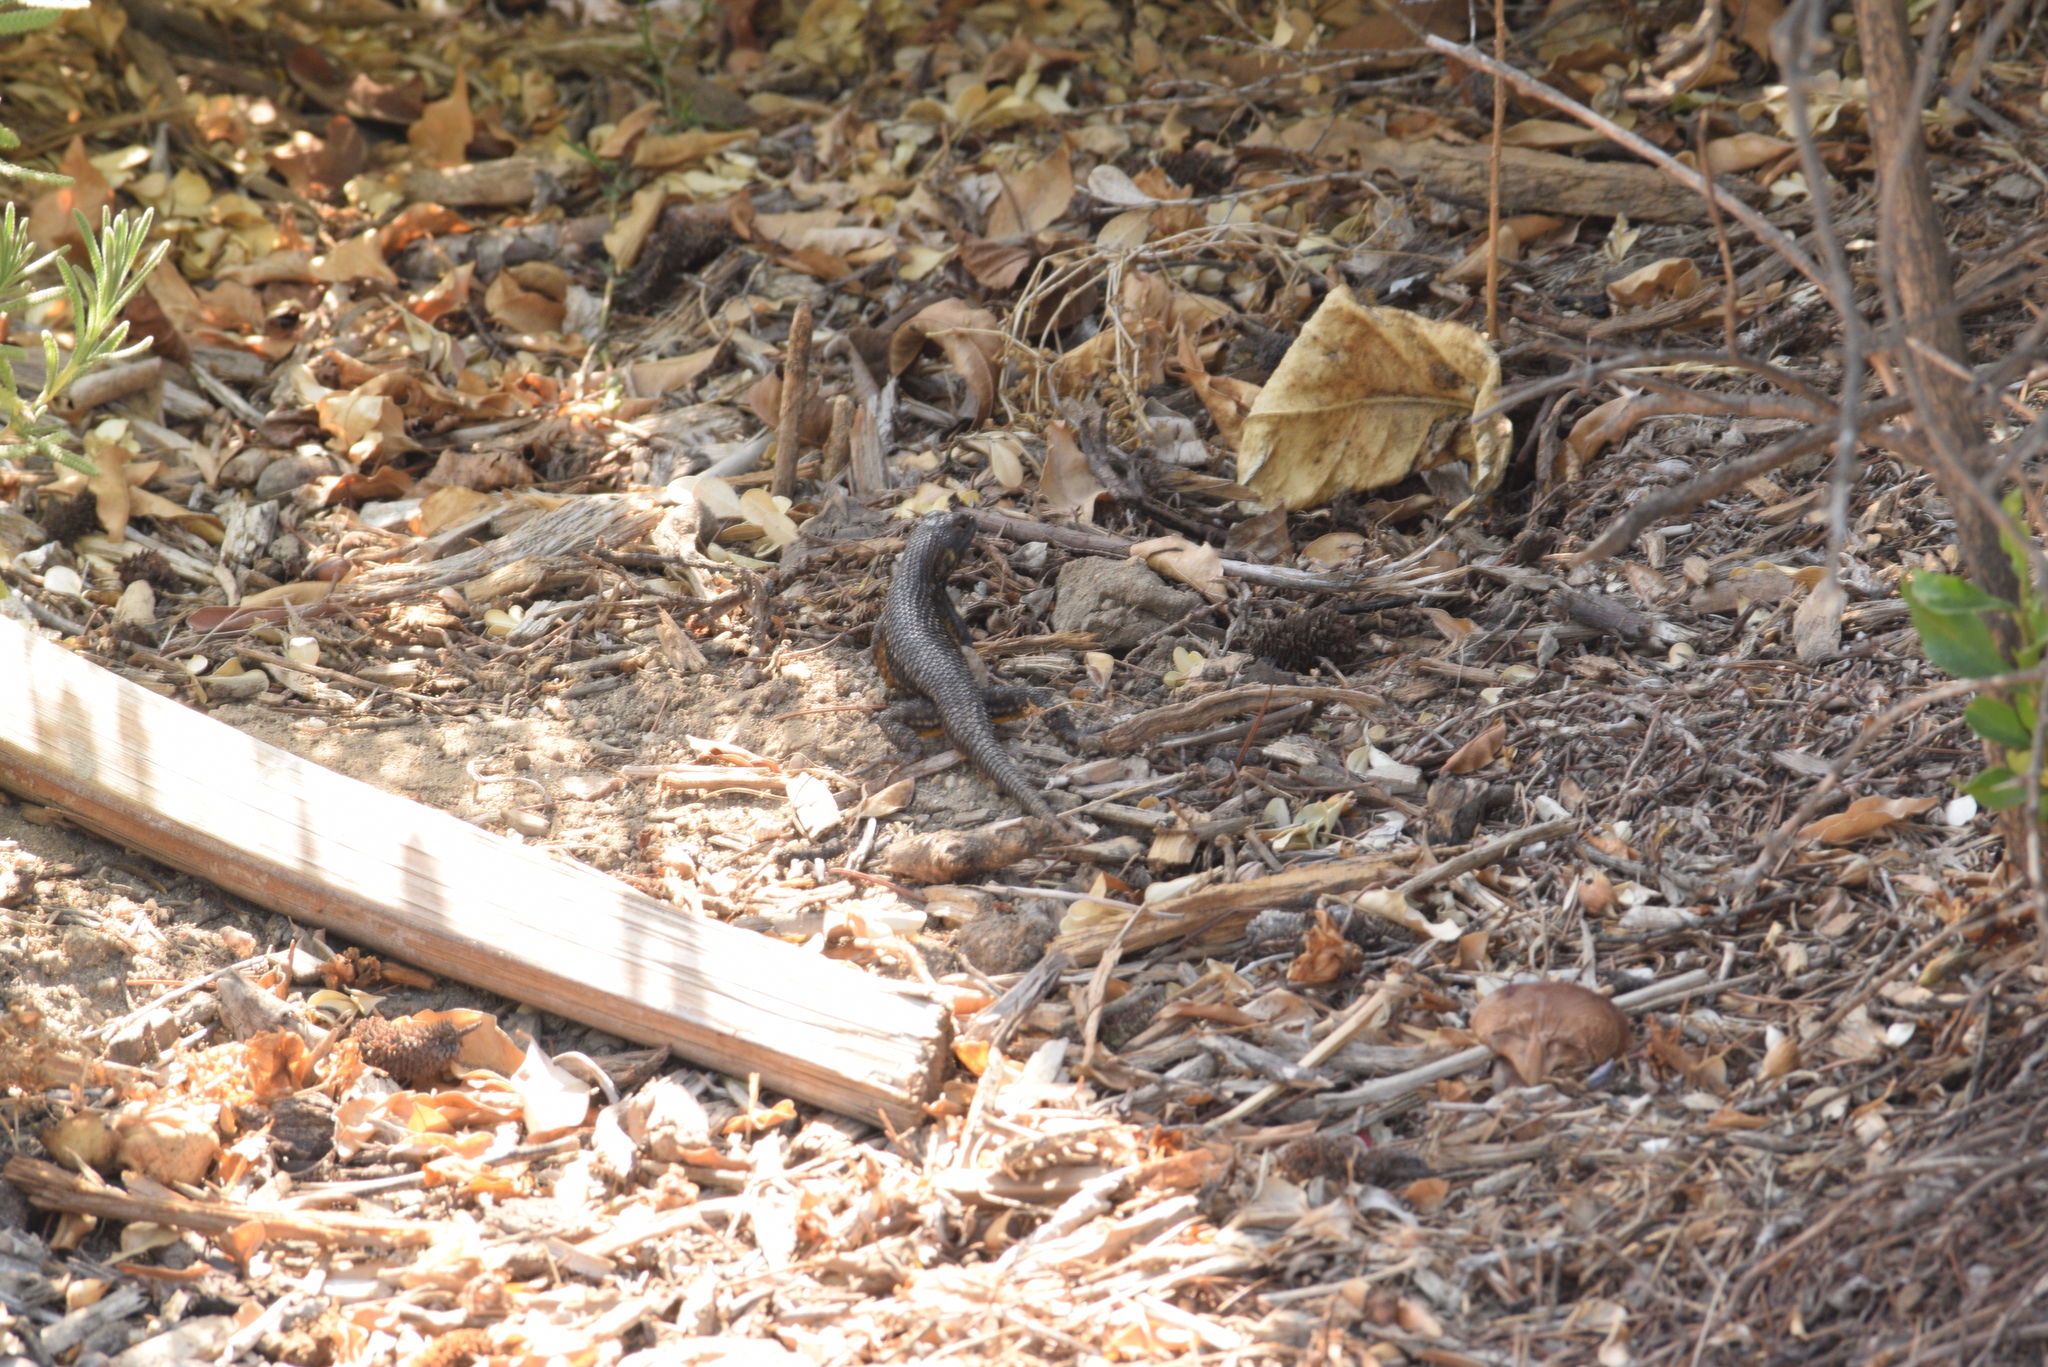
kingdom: Animalia
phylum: Chordata
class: Squamata
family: Phrynosomatidae
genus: Sceloporus
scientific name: Sceloporus occidentalis
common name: Western fence lizard
